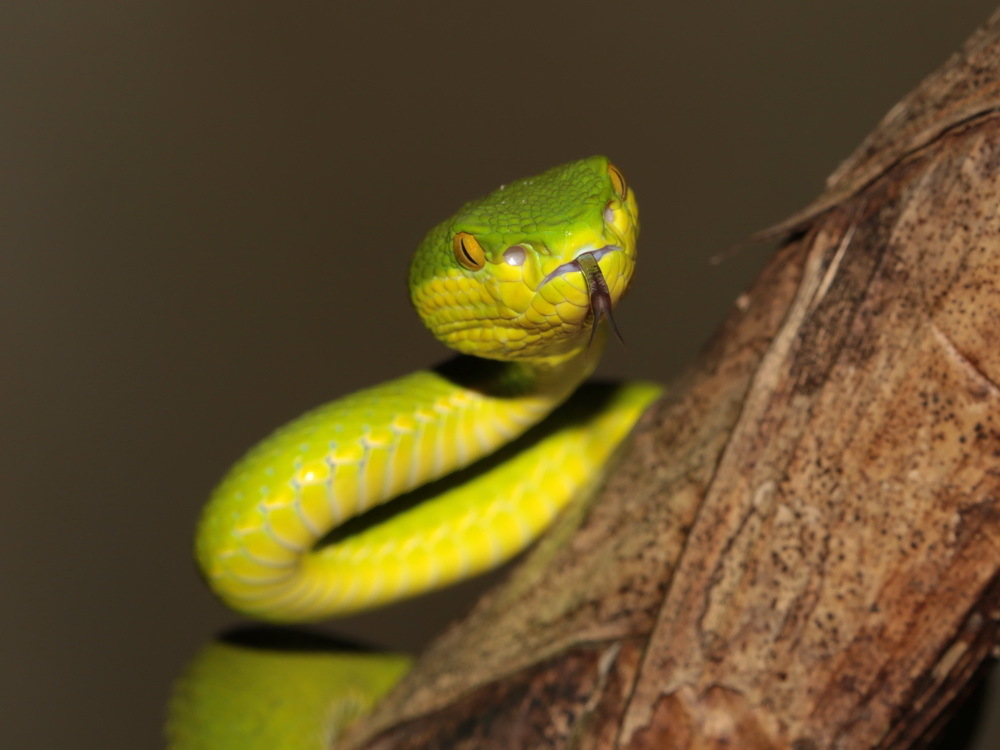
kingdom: Animalia
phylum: Chordata
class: Squamata
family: Viperidae
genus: Trimeresurus
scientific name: Trimeresurus albolabris
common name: White-lipped pitviper
